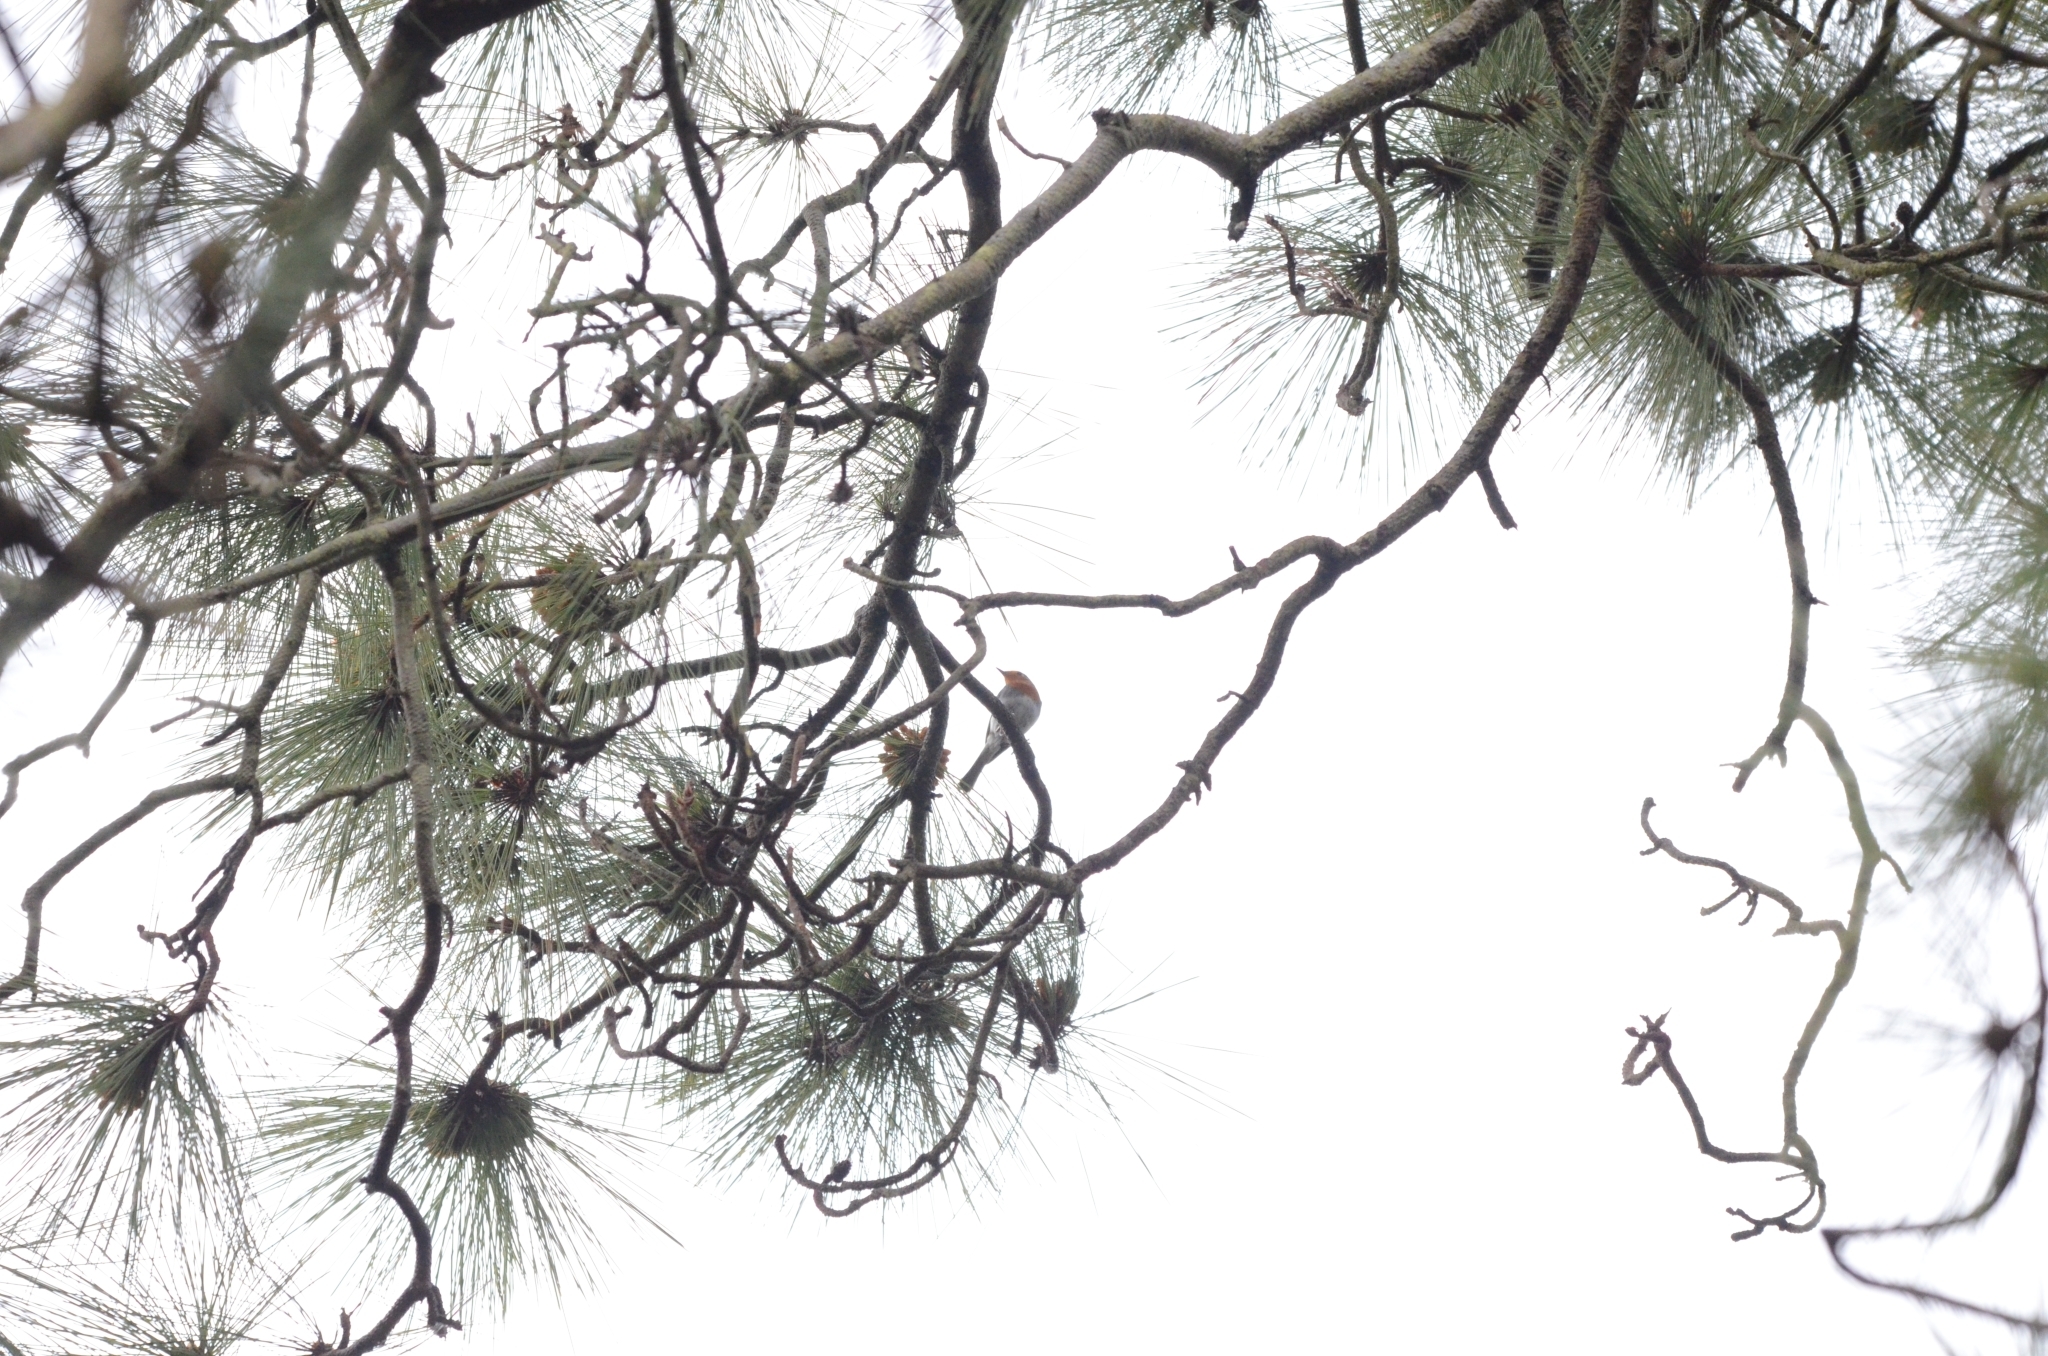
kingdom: Animalia
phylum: Chordata
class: Aves
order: Passeriformes
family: Muscicapidae
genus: Erithacus
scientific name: Erithacus rubecula
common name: European robin
